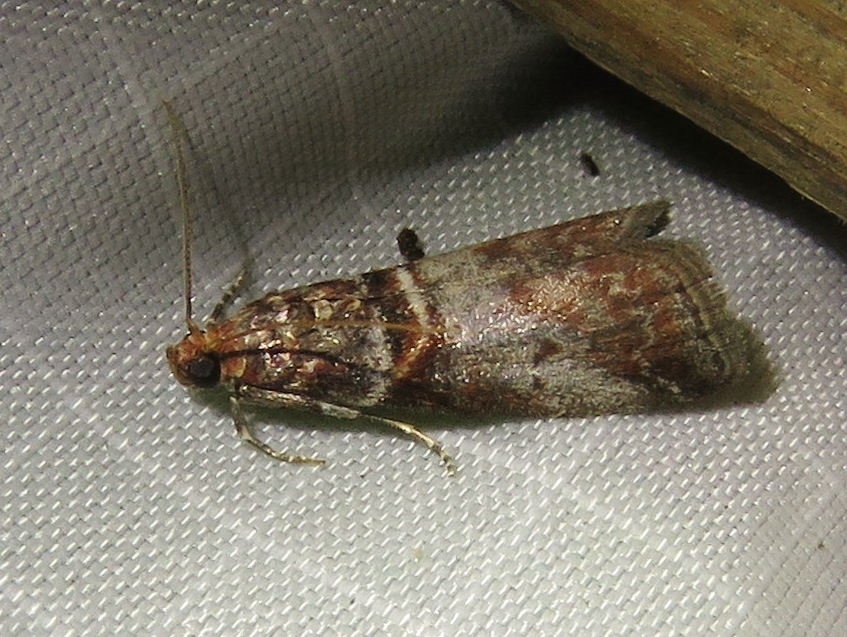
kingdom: Animalia
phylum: Arthropoda
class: Insecta
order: Lepidoptera
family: Pyralidae
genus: Acrobasis
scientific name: Acrobasis advenella
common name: Grey knot-horn
